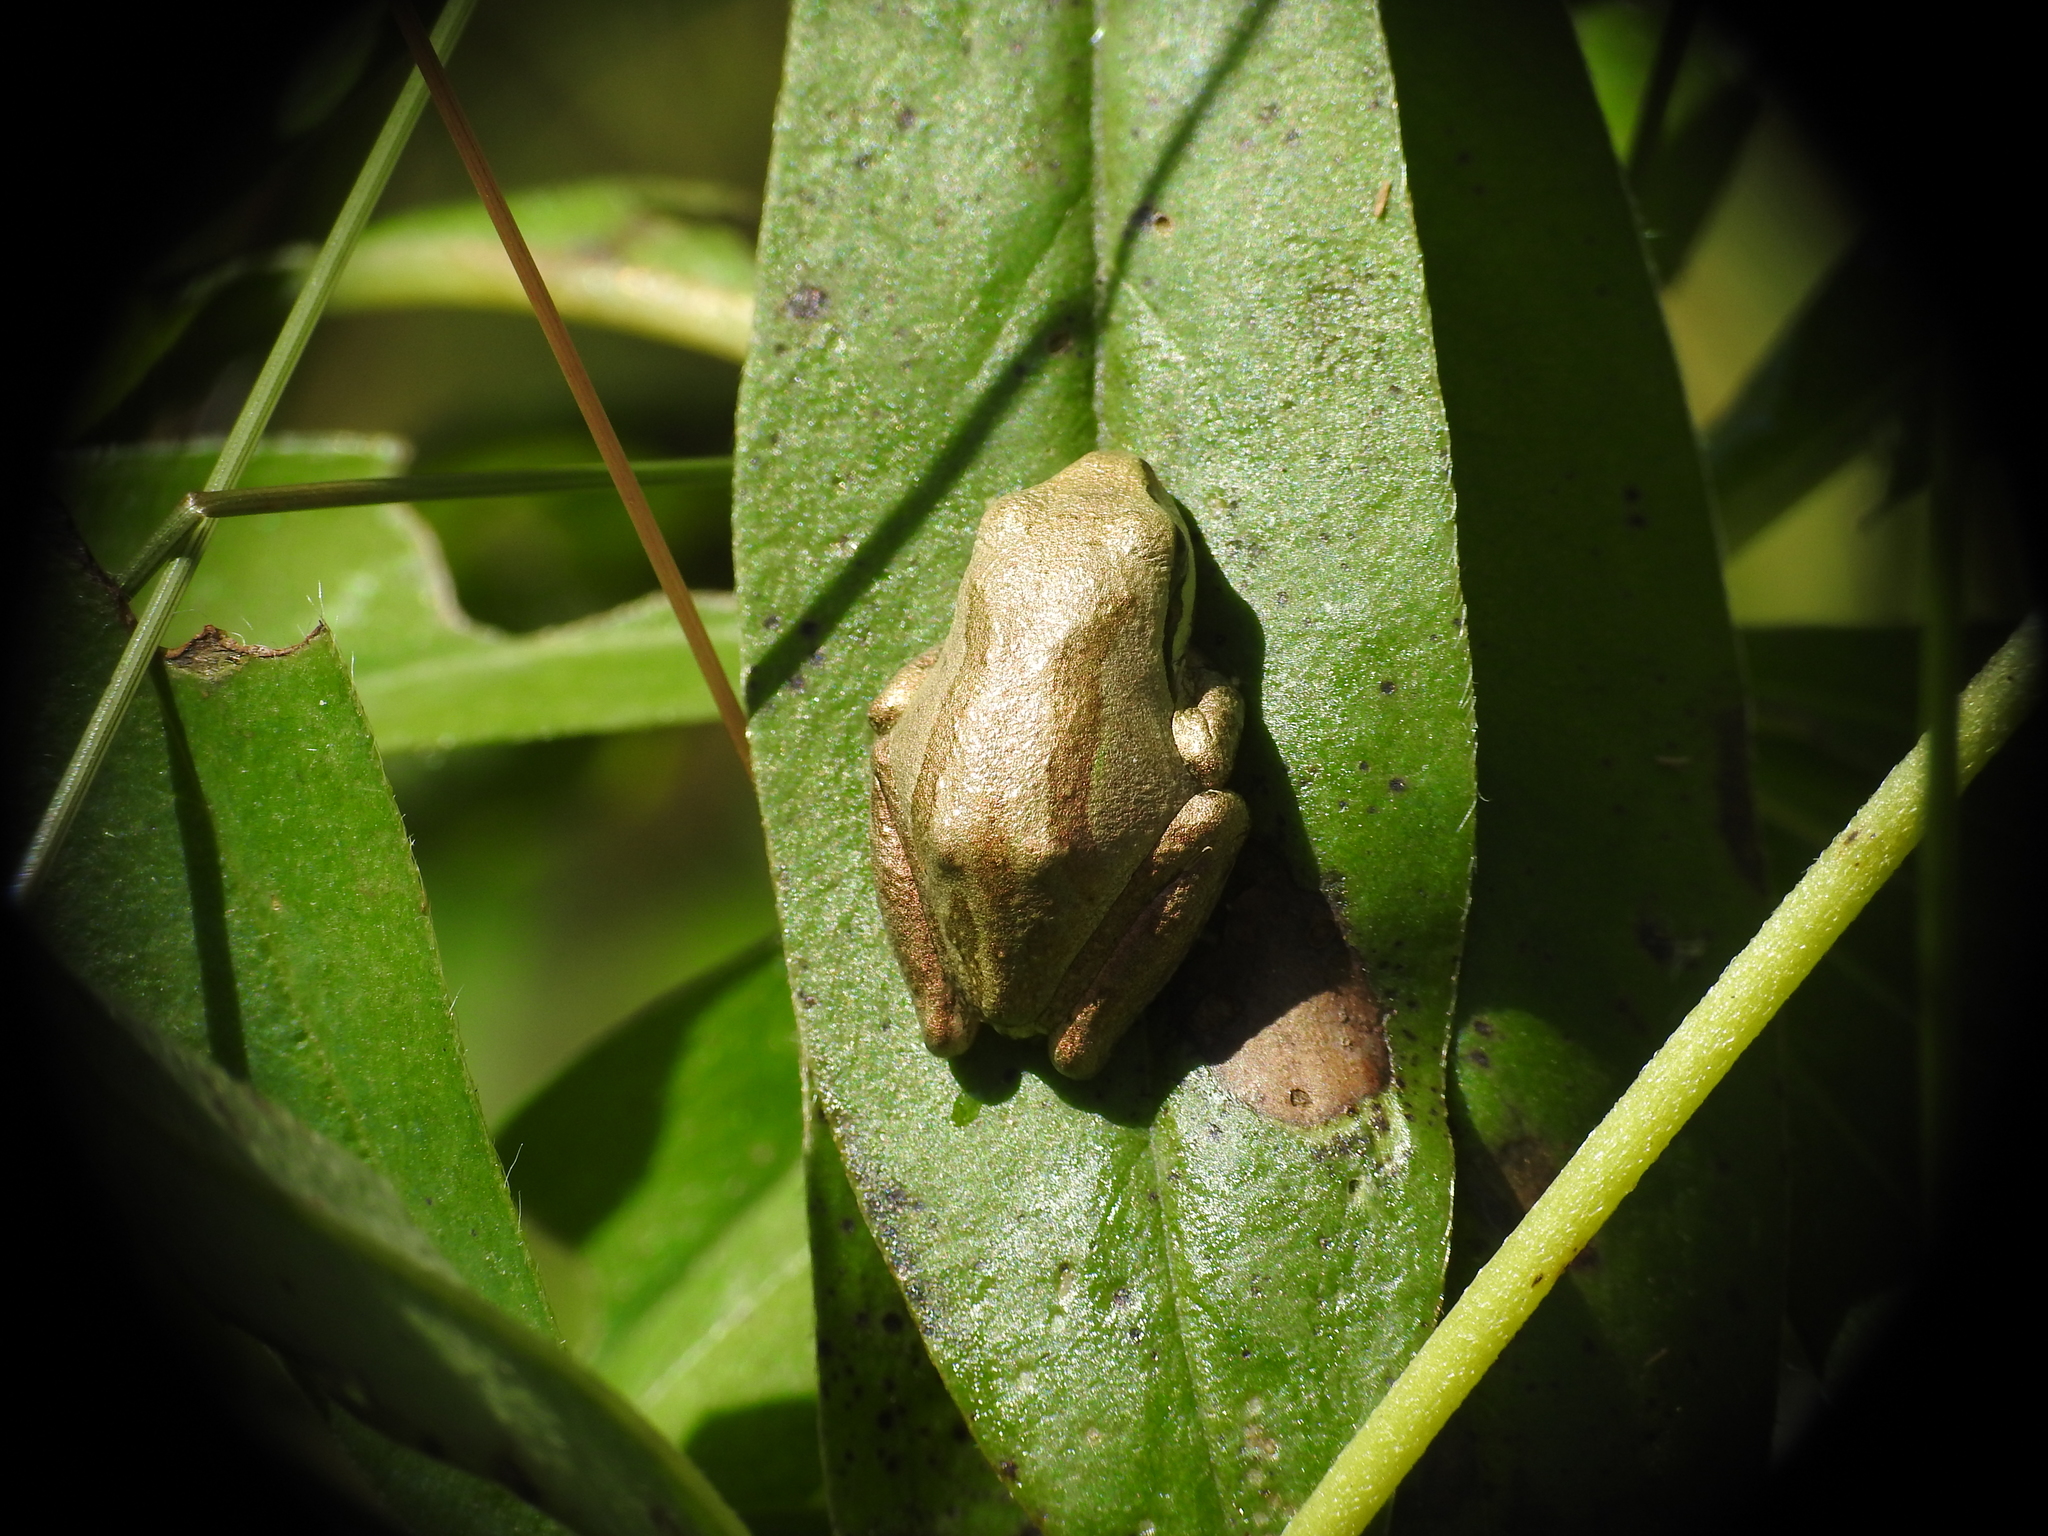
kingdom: Animalia
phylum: Chordata
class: Amphibia
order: Anura
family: Hylidae
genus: Pseudacris
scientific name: Pseudacris regilla
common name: Pacific chorus frog
